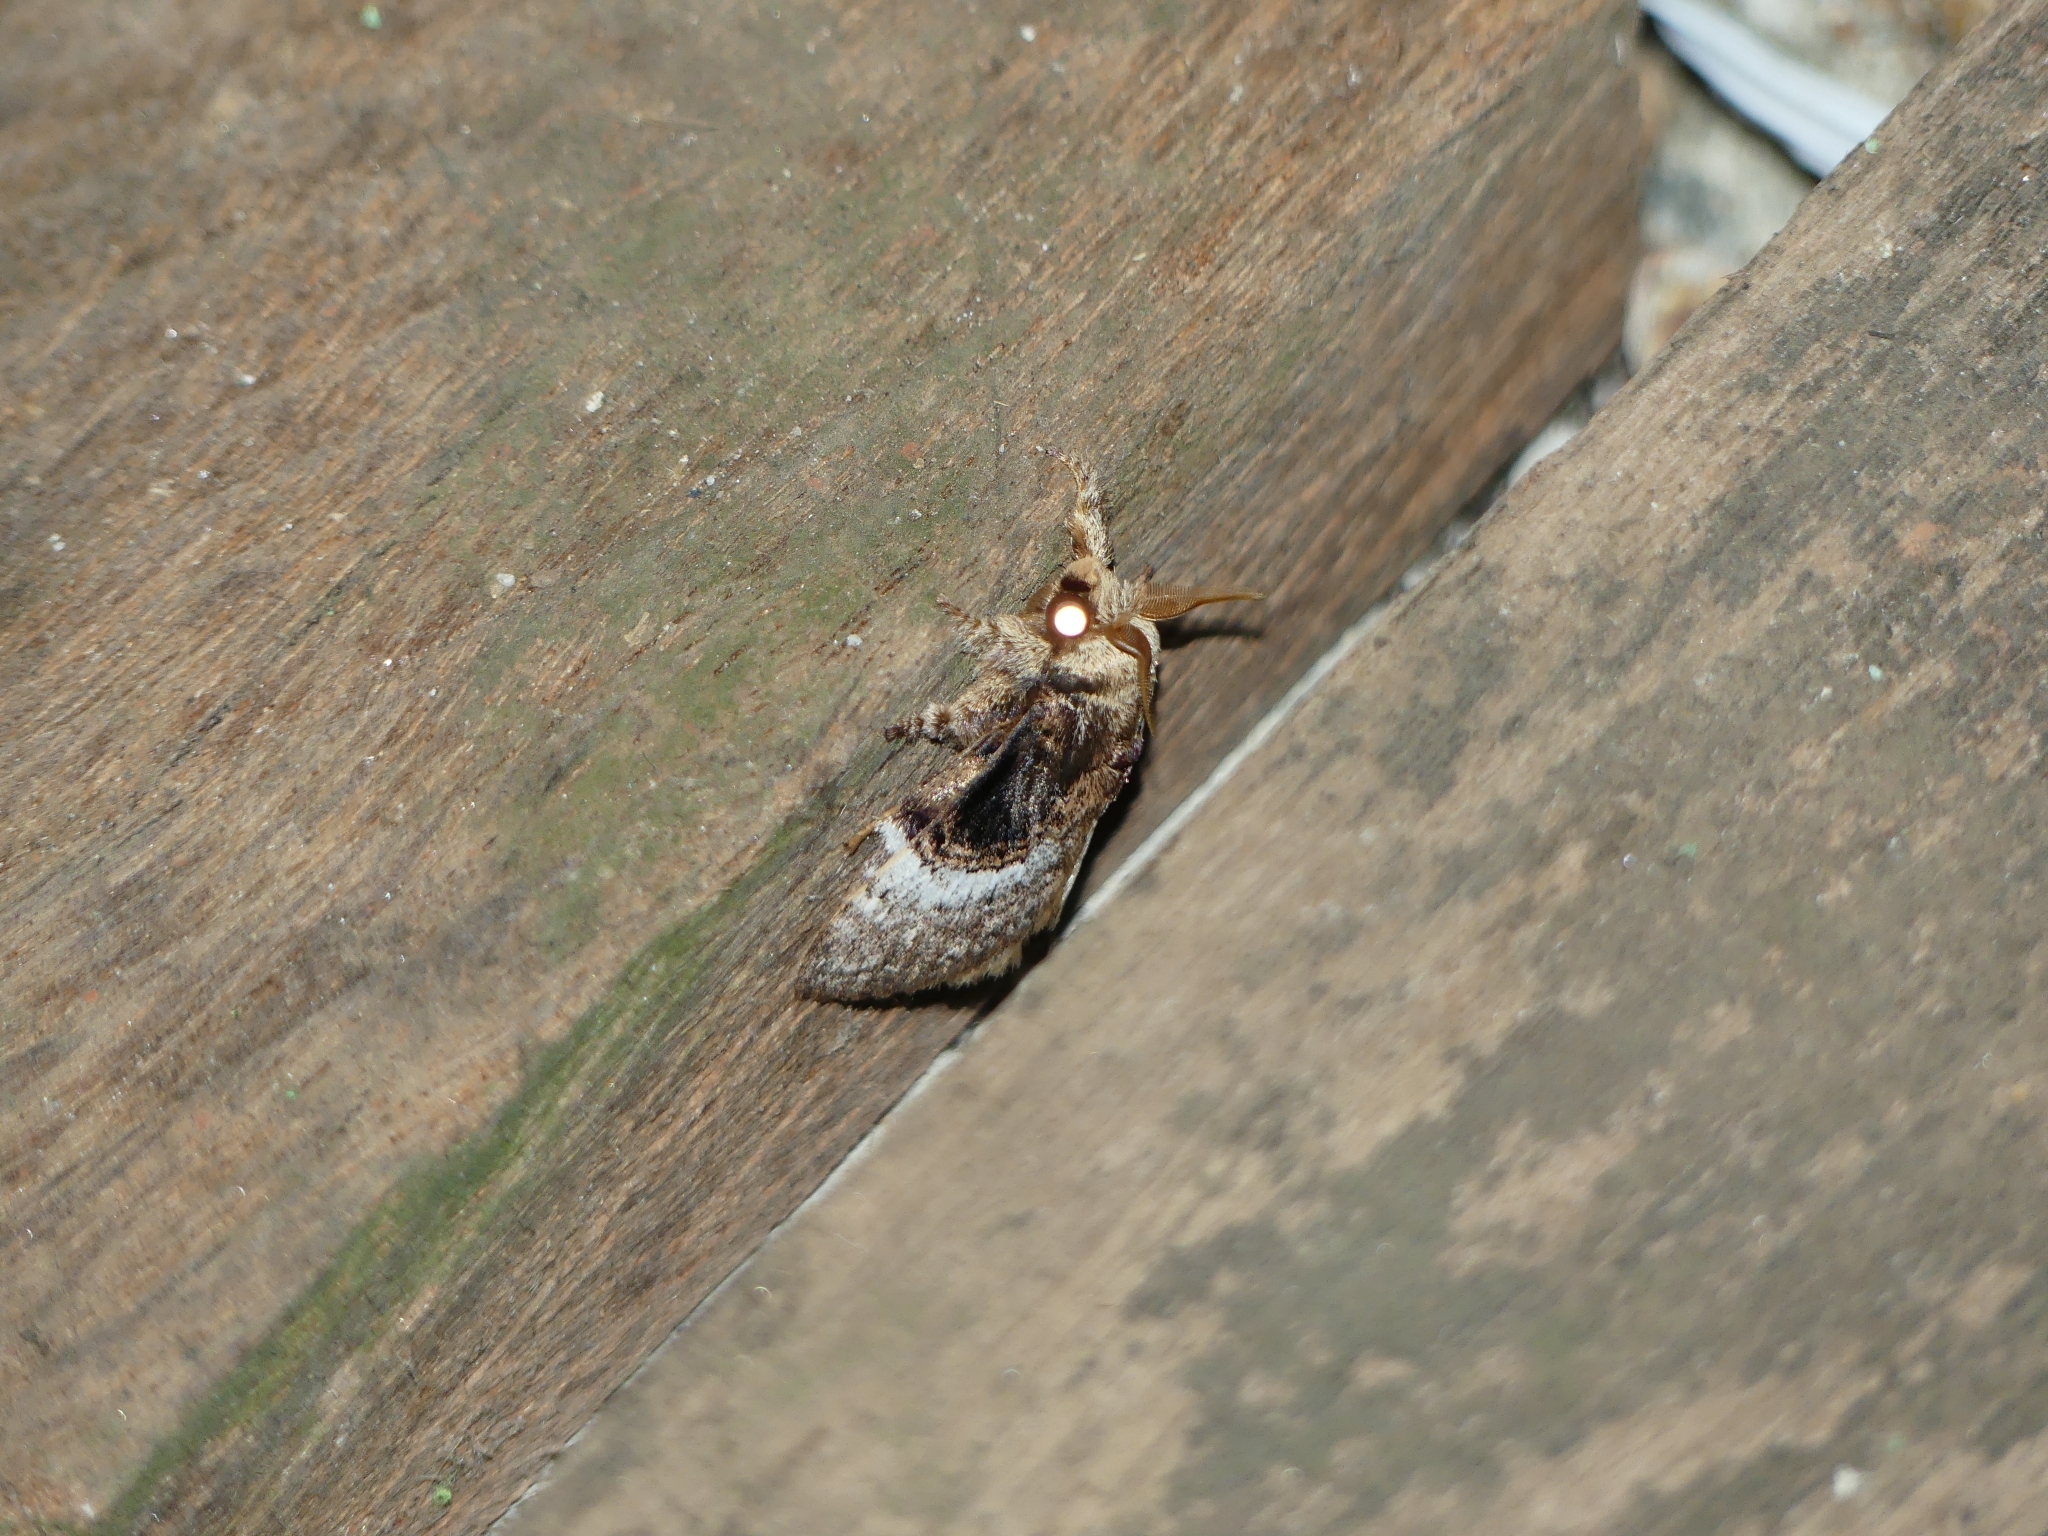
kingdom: Animalia
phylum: Arthropoda
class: Insecta
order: Lepidoptera
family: Lasiocampidae
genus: Euglyphis
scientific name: Euglyphis larunda
